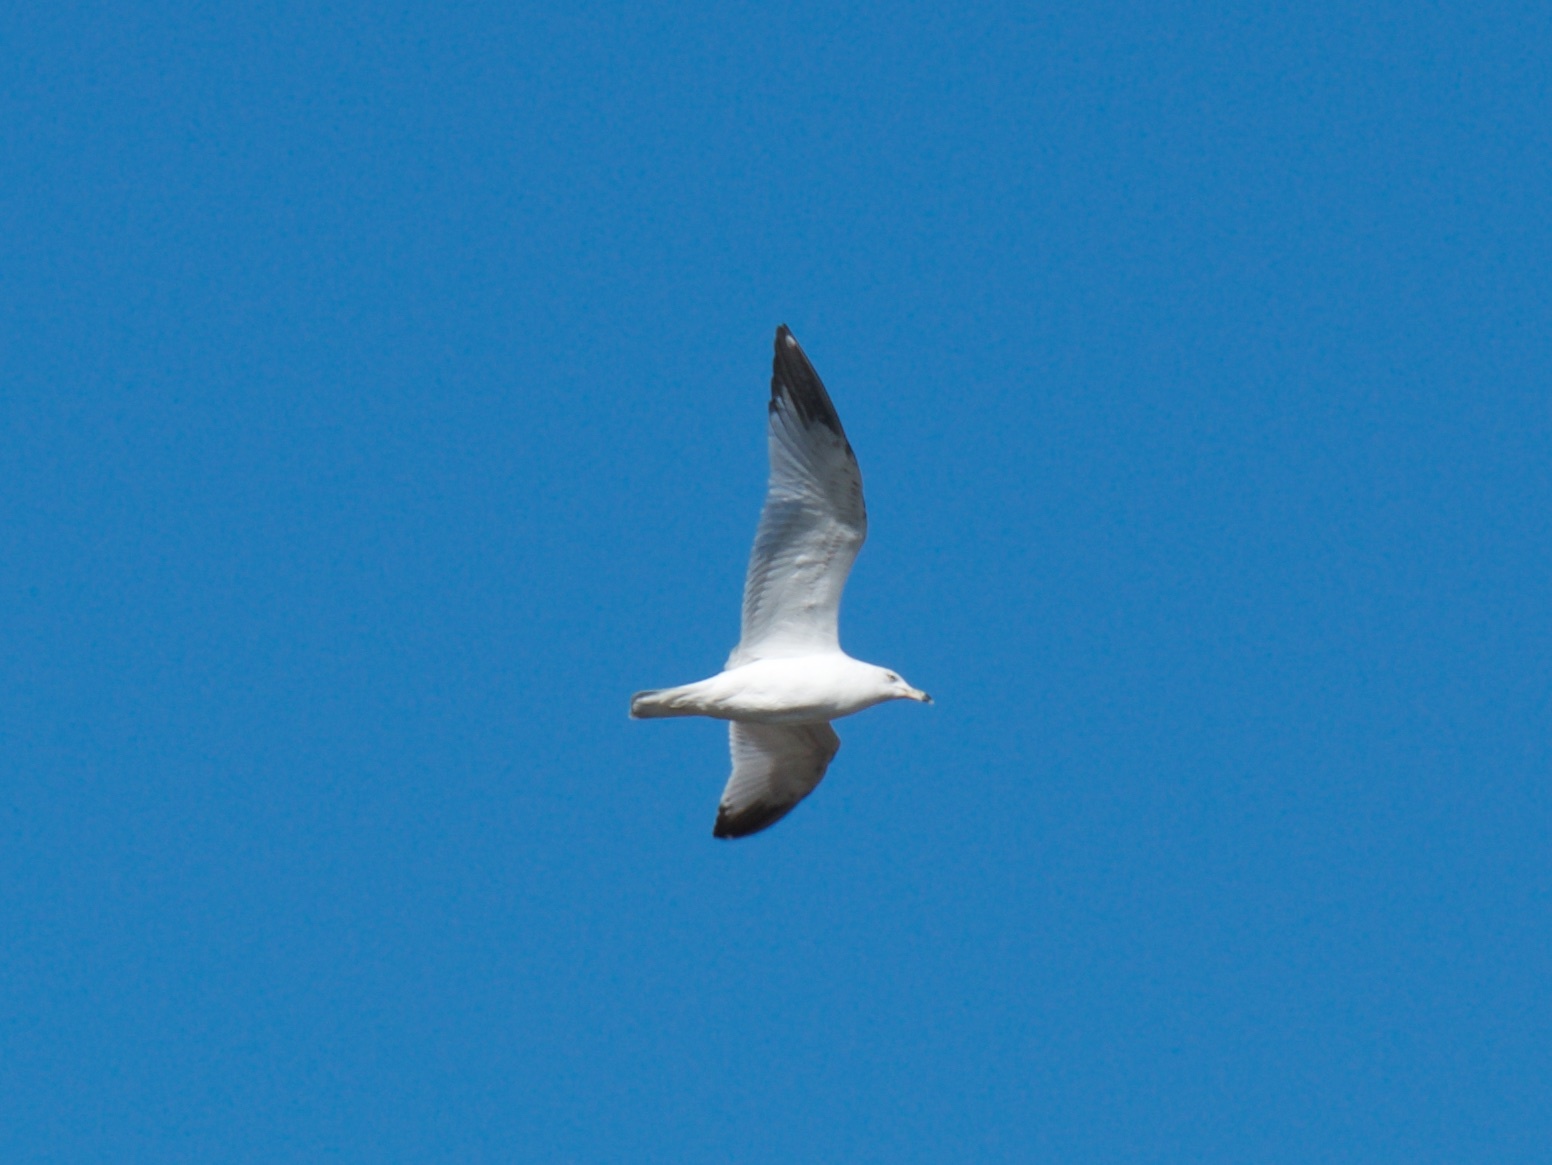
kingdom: Animalia
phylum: Chordata
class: Aves
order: Charadriiformes
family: Laridae
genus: Larus
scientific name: Larus delawarensis
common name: Ring-billed gull
